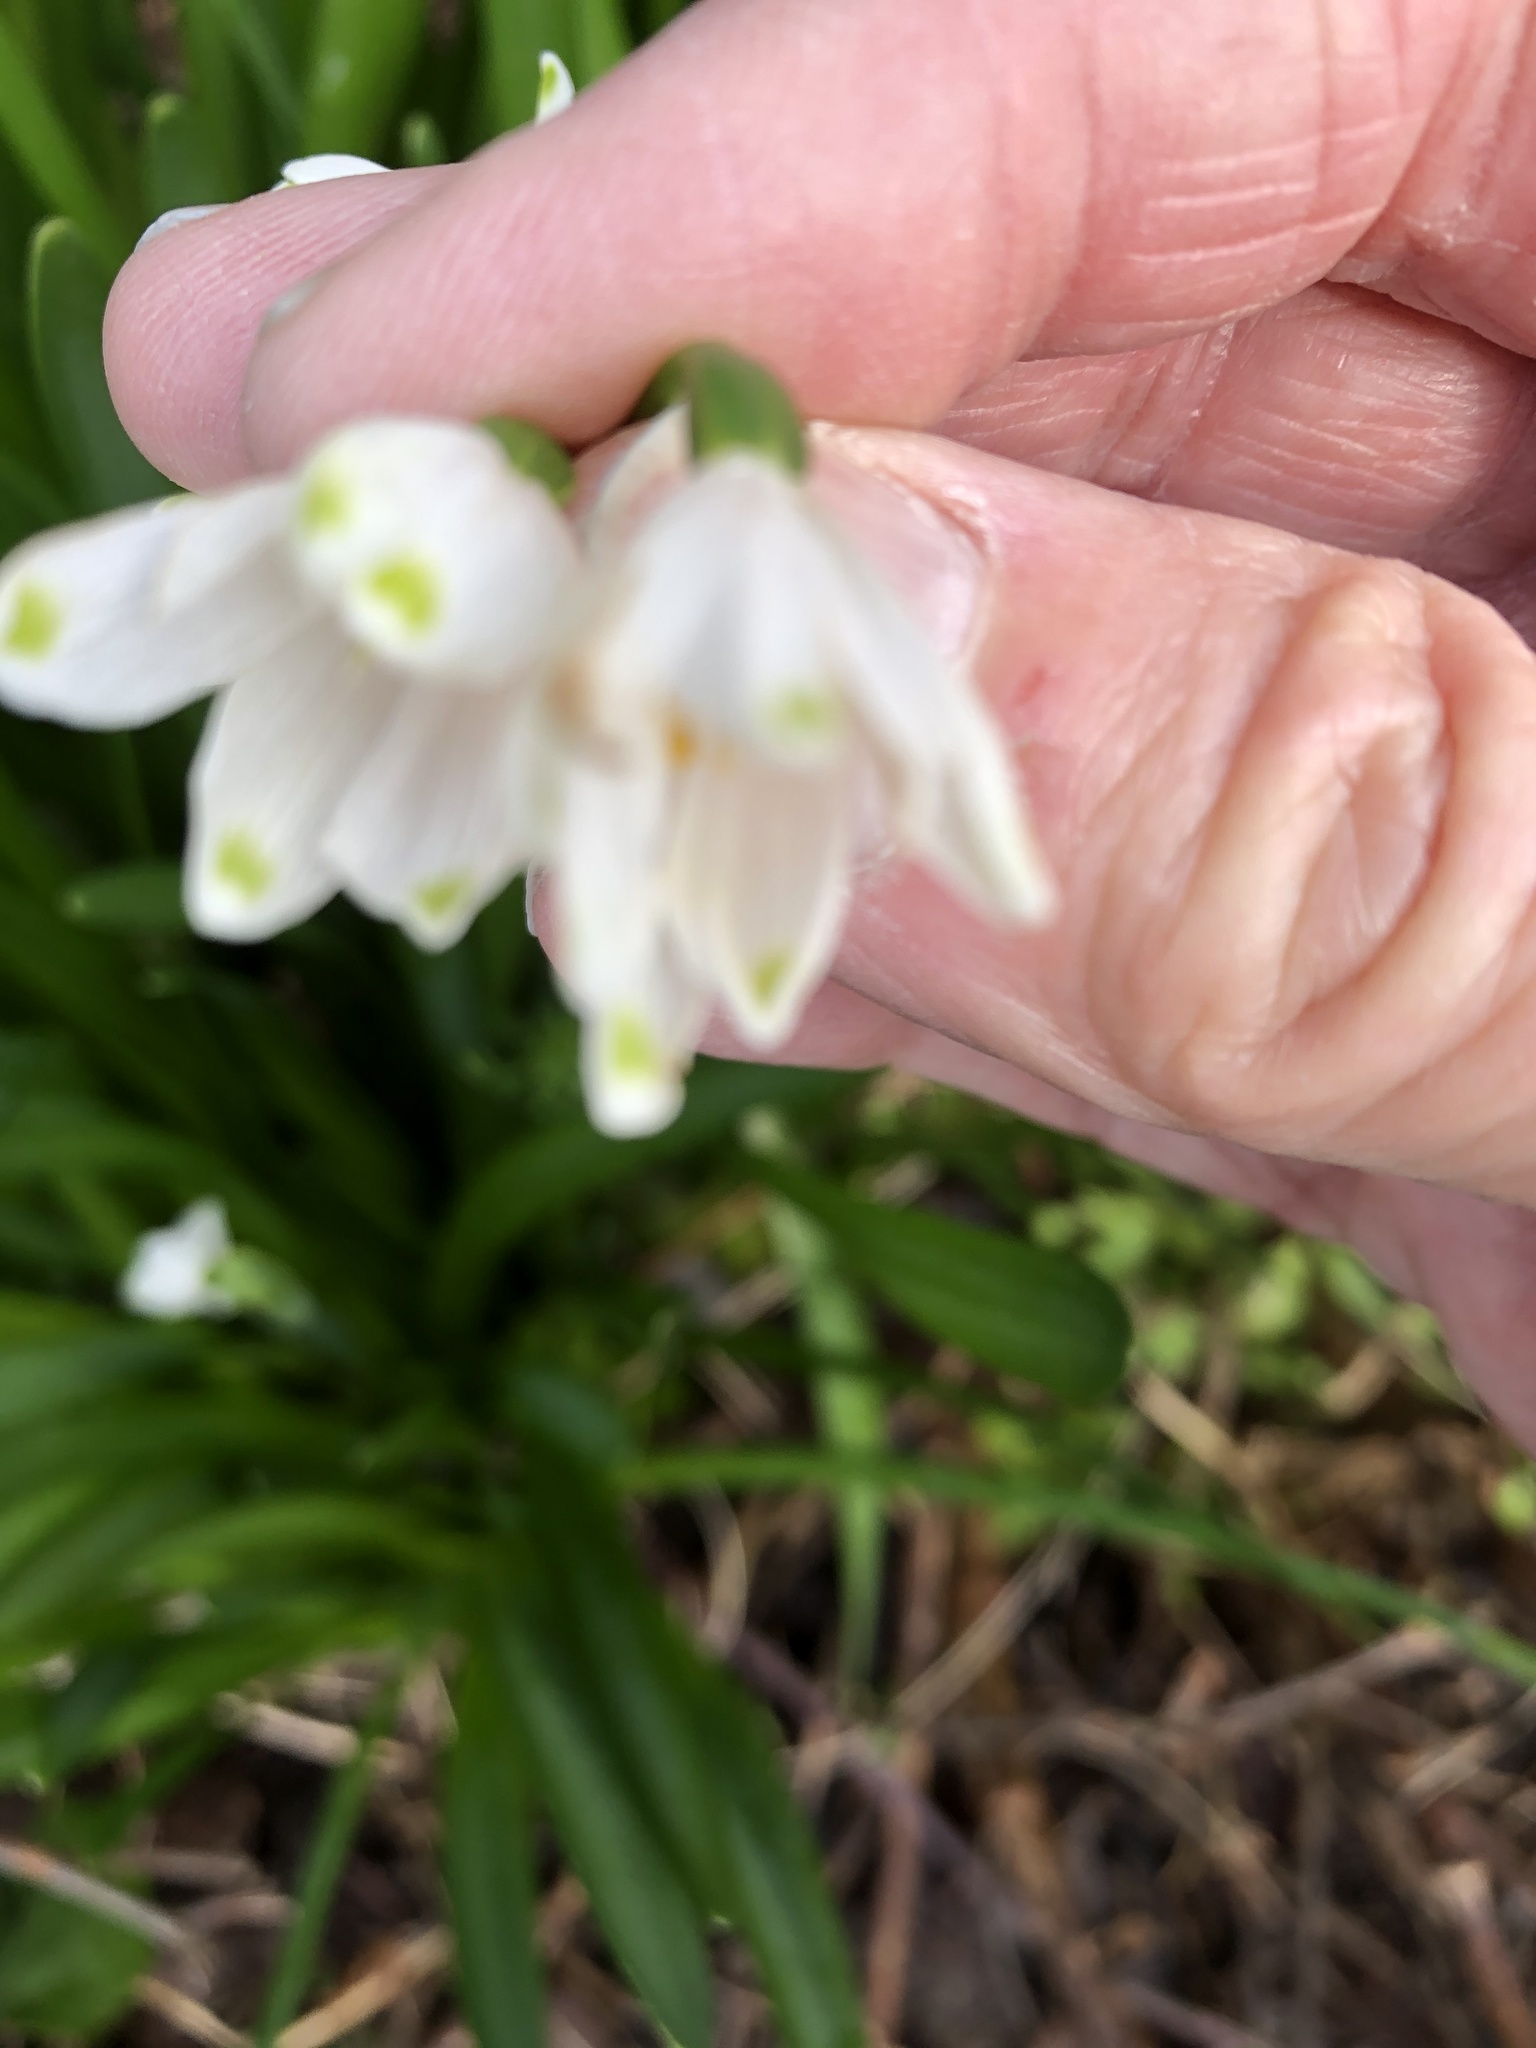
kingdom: Plantae
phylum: Tracheophyta
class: Liliopsida
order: Asparagales
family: Amaryllidaceae
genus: Leucojum
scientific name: Leucojum aestivum
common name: Summer snowflake
